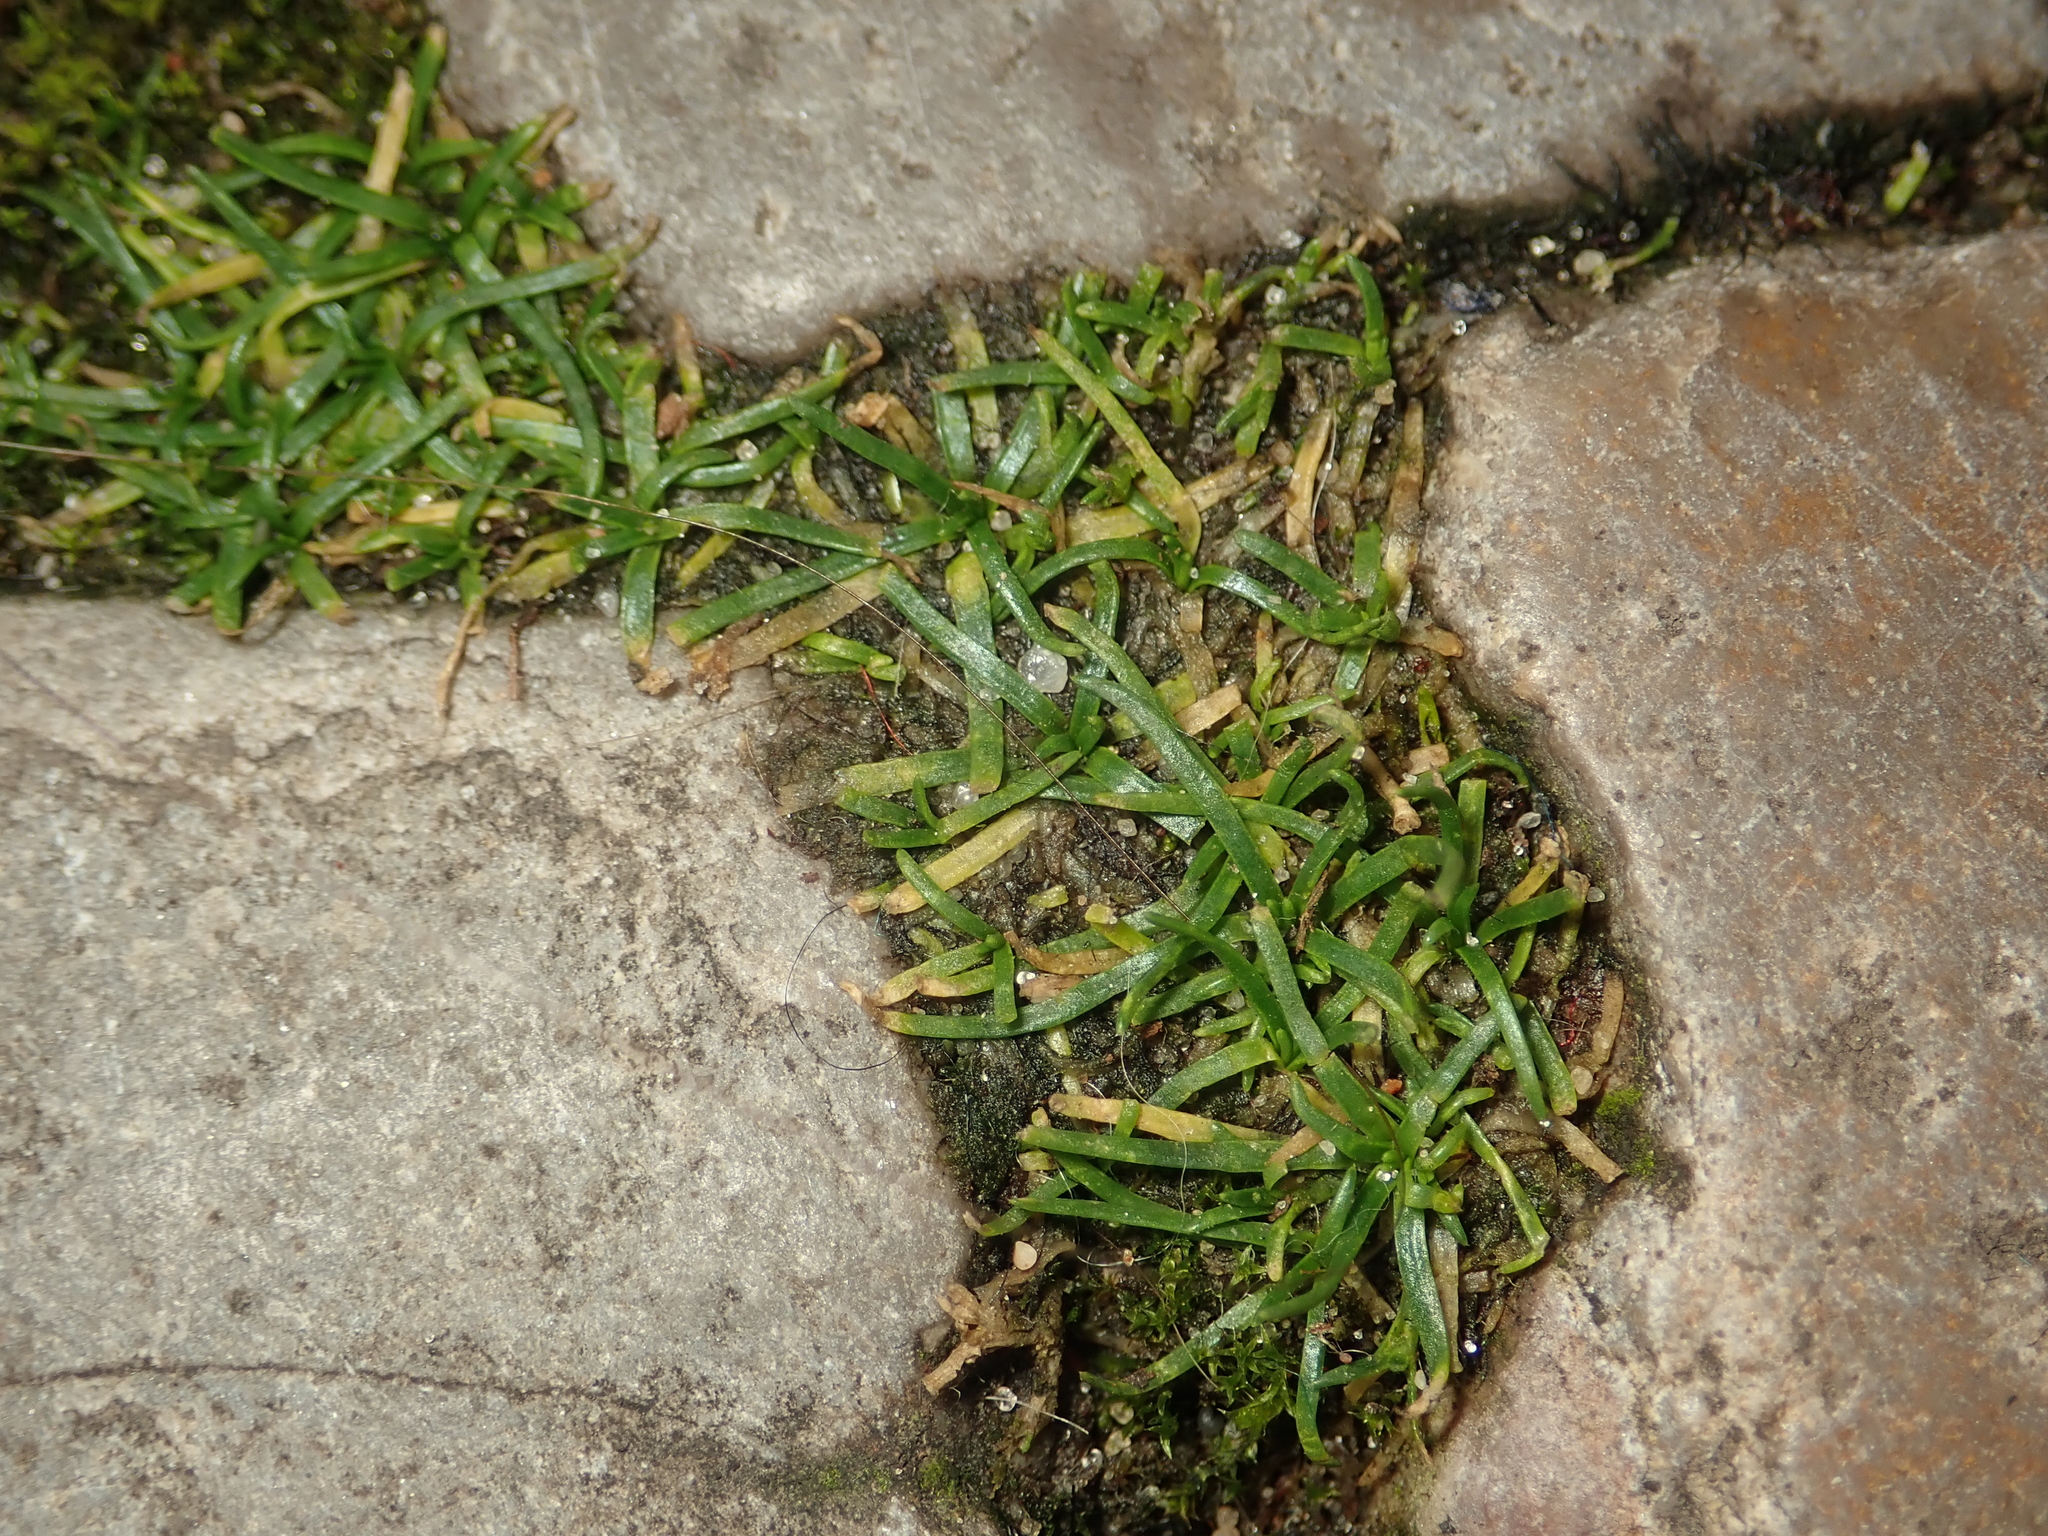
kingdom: Plantae
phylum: Tracheophyta
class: Magnoliopsida
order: Caryophyllales
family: Caryophyllaceae
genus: Sagina
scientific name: Sagina procumbens
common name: Procumbent pearlwort
